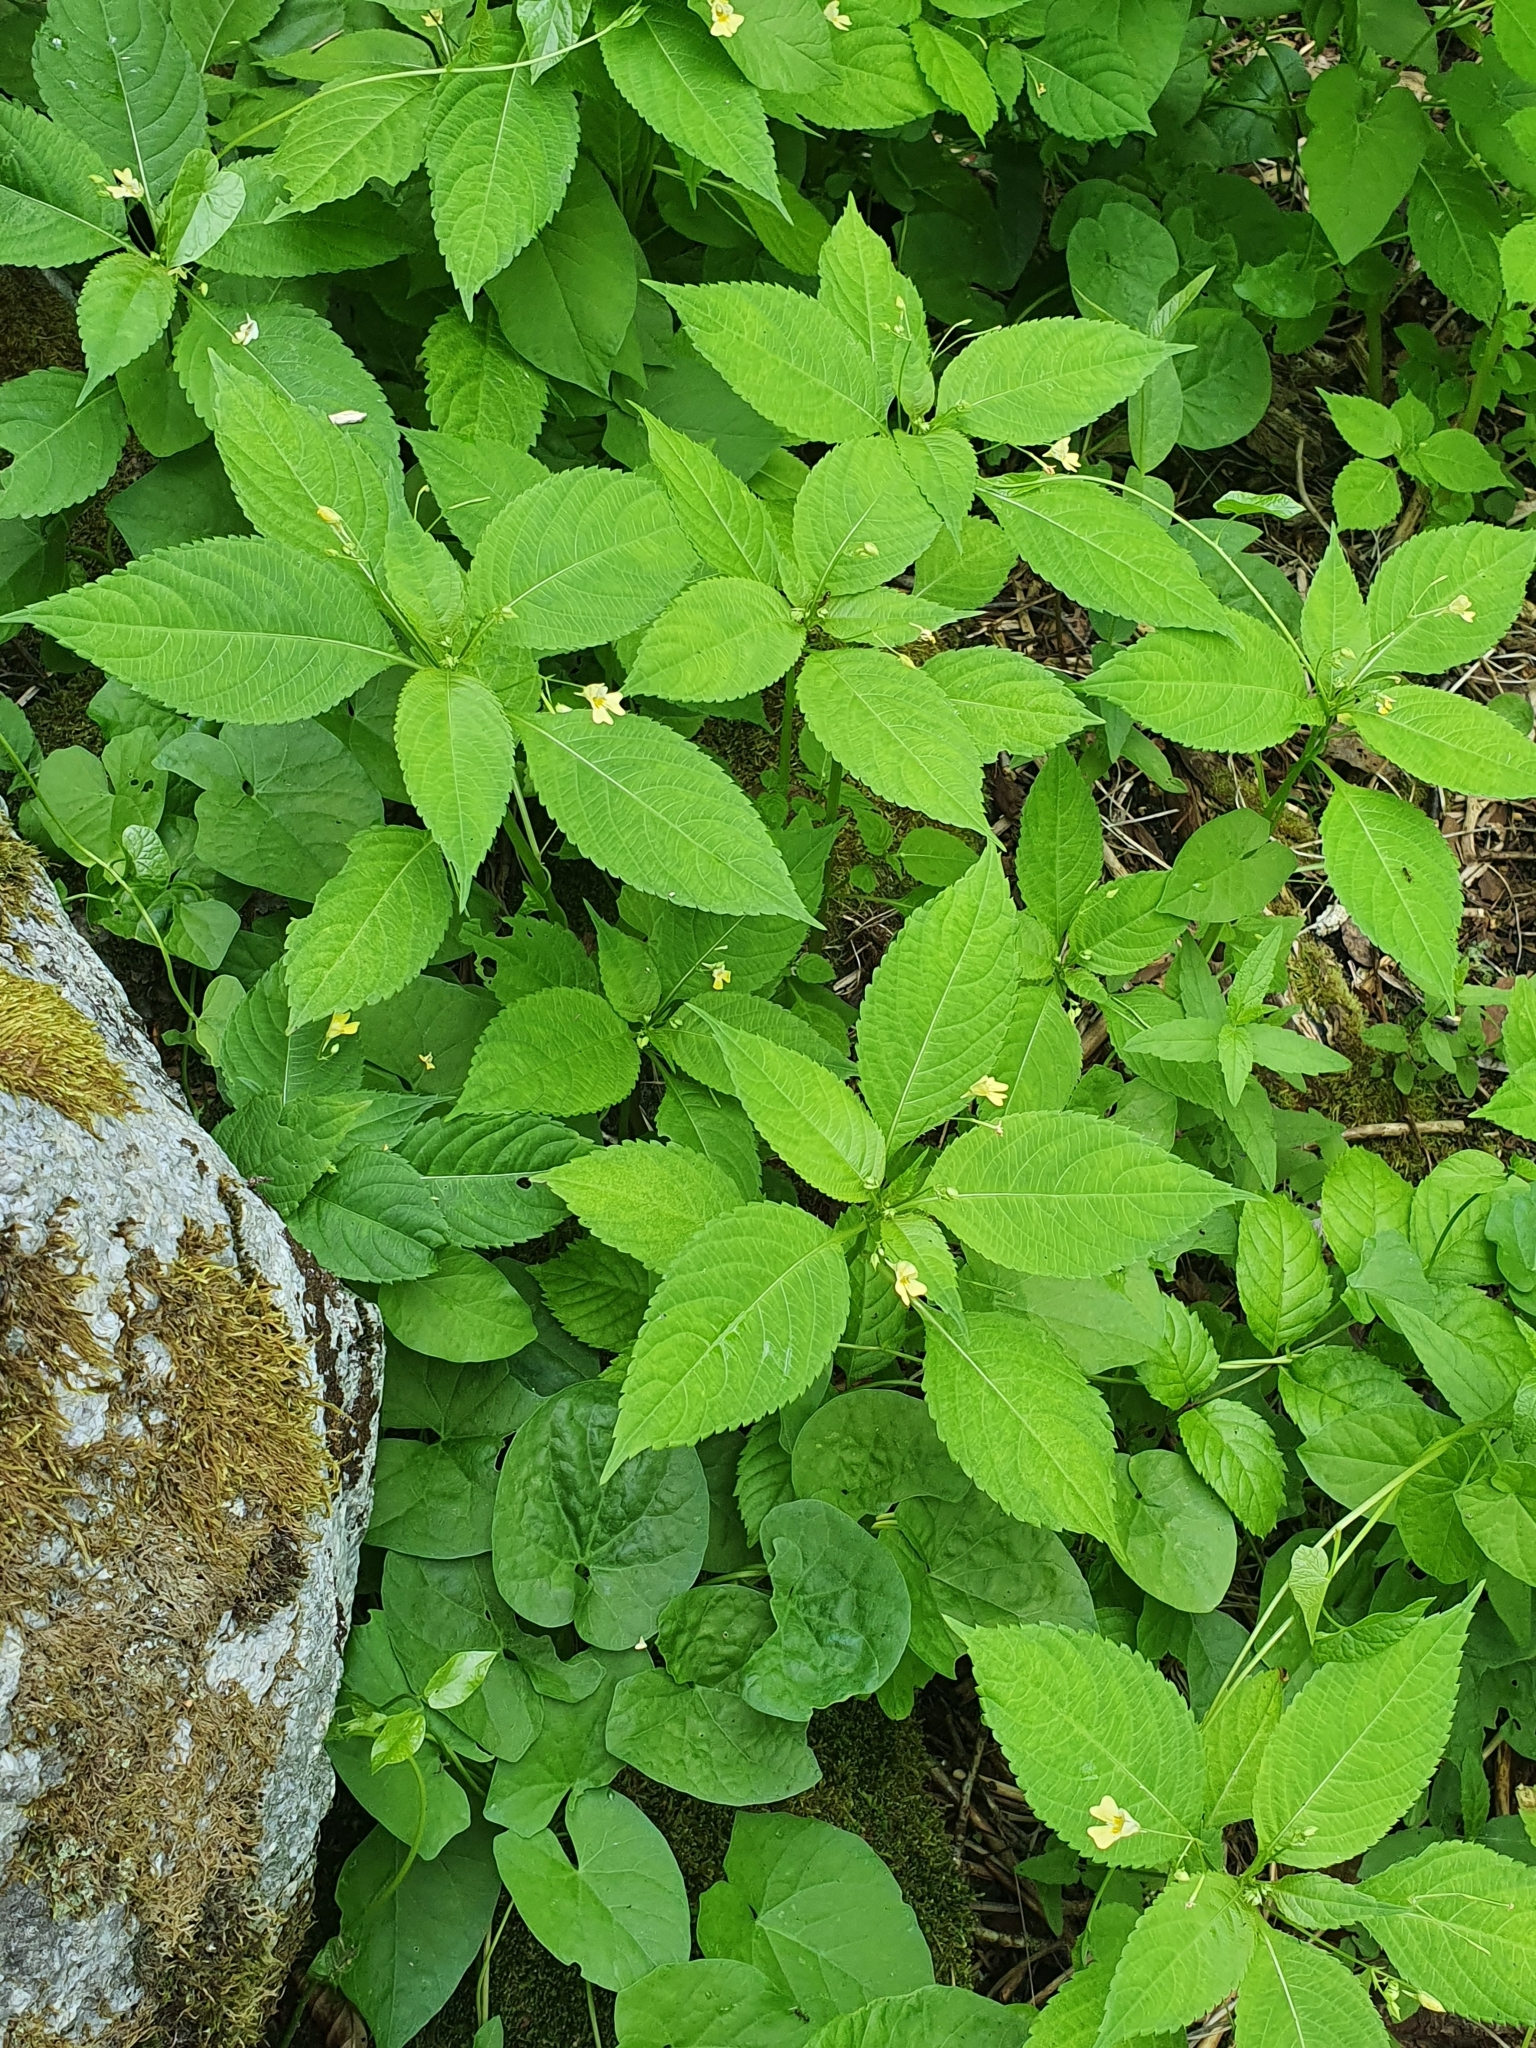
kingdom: Plantae
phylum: Tracheophyta
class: Magnoliopsida
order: Ericales
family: Balsaminaceae
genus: Impatiens
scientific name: Impatiens parviflora
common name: Small balsam
